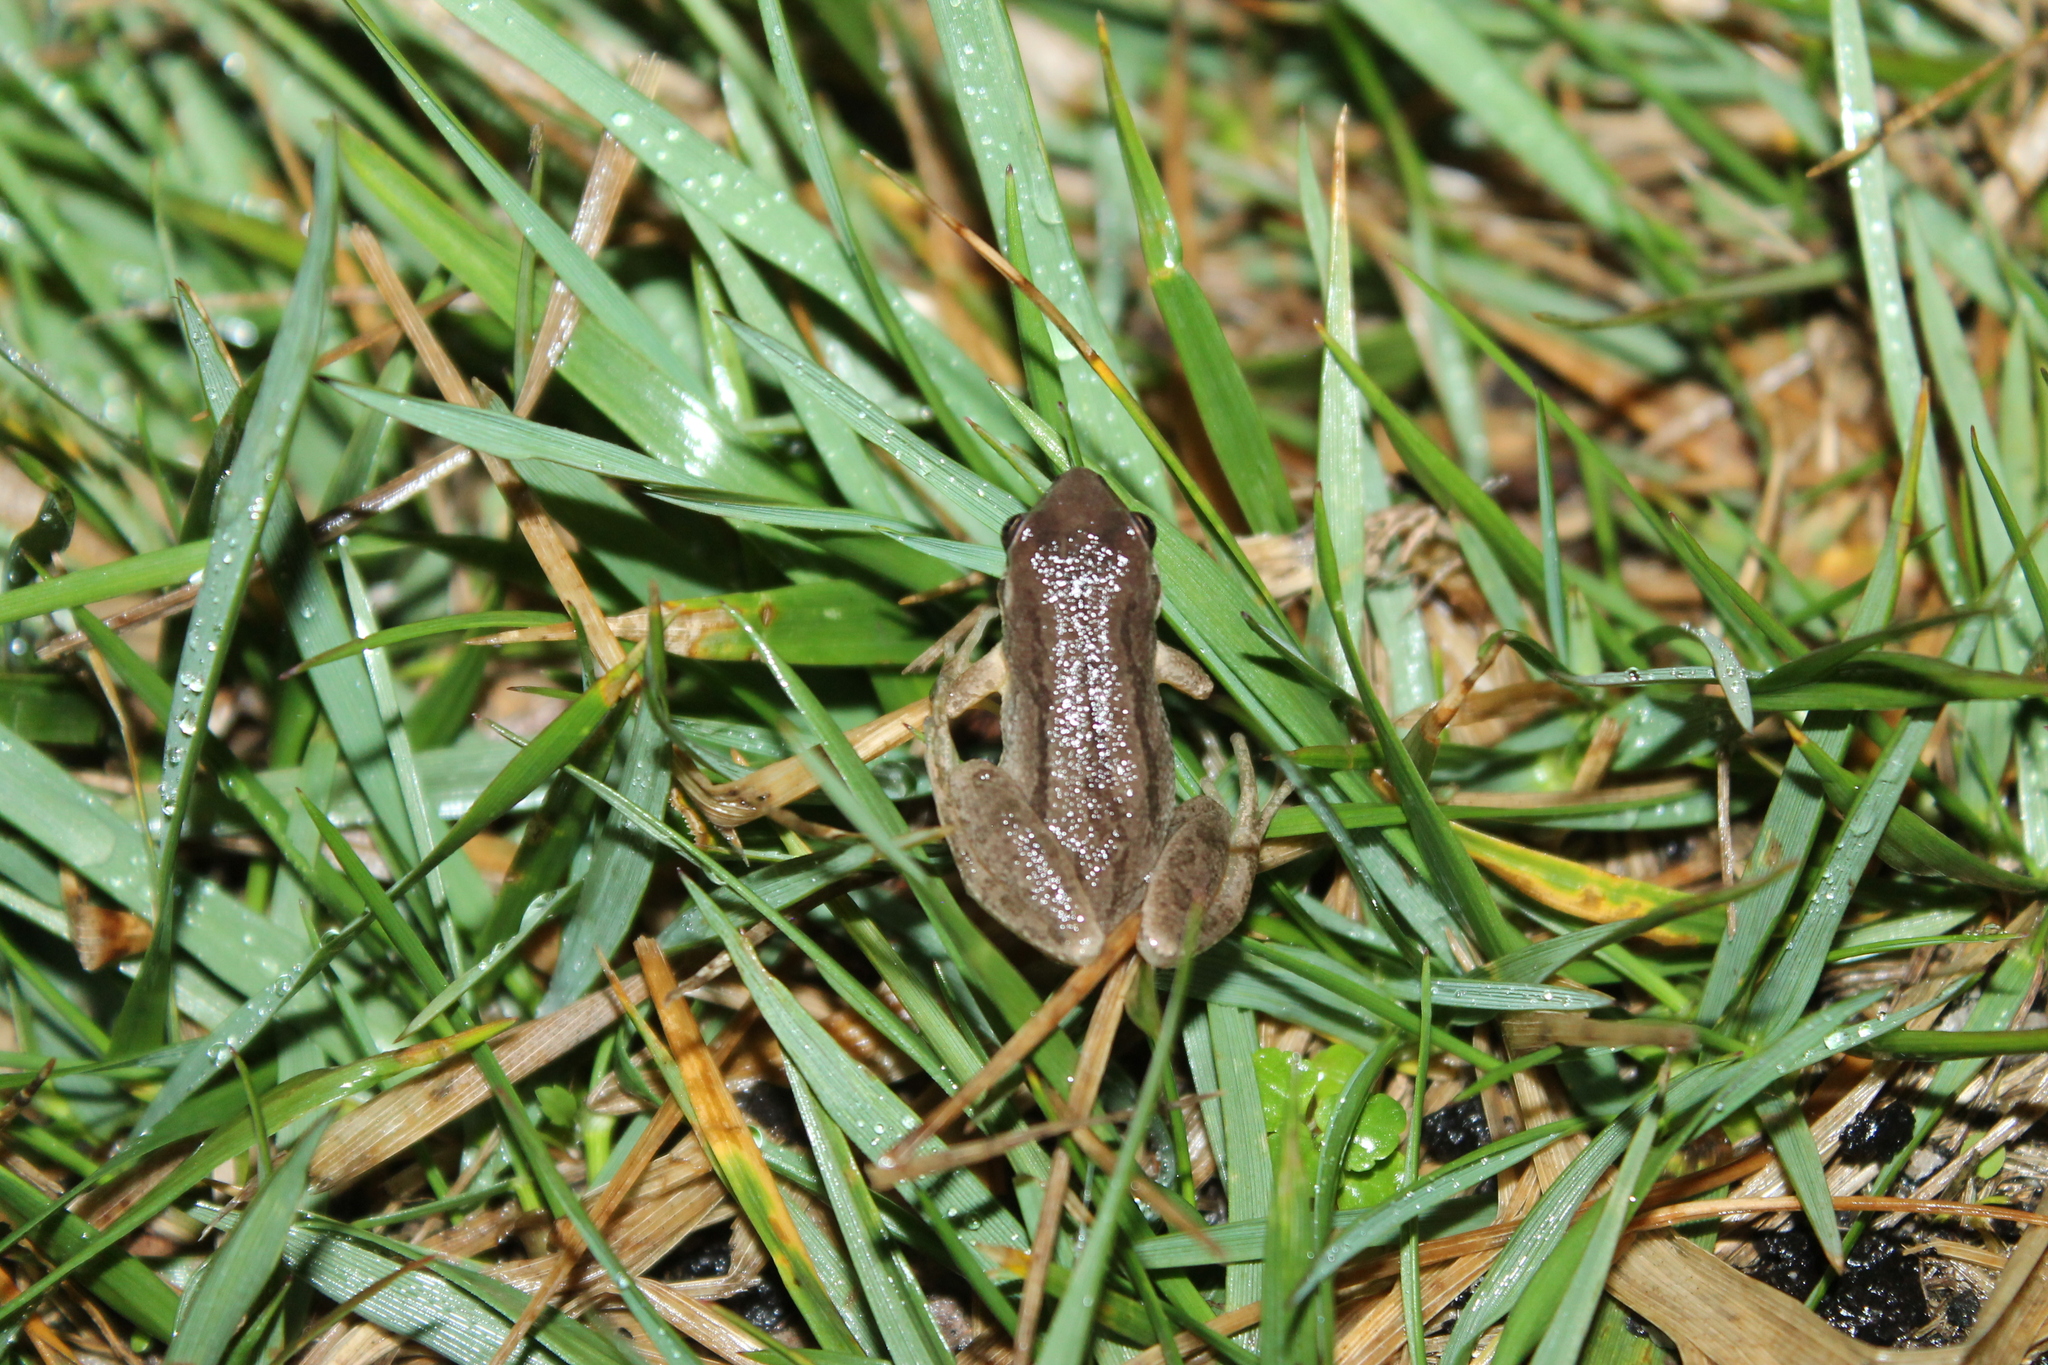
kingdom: Animalia
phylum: Chordata
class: Amphibia
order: Anura
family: Hylidae
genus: Pseudacris
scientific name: Pseudacris feriarum
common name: Upland chorus frog
